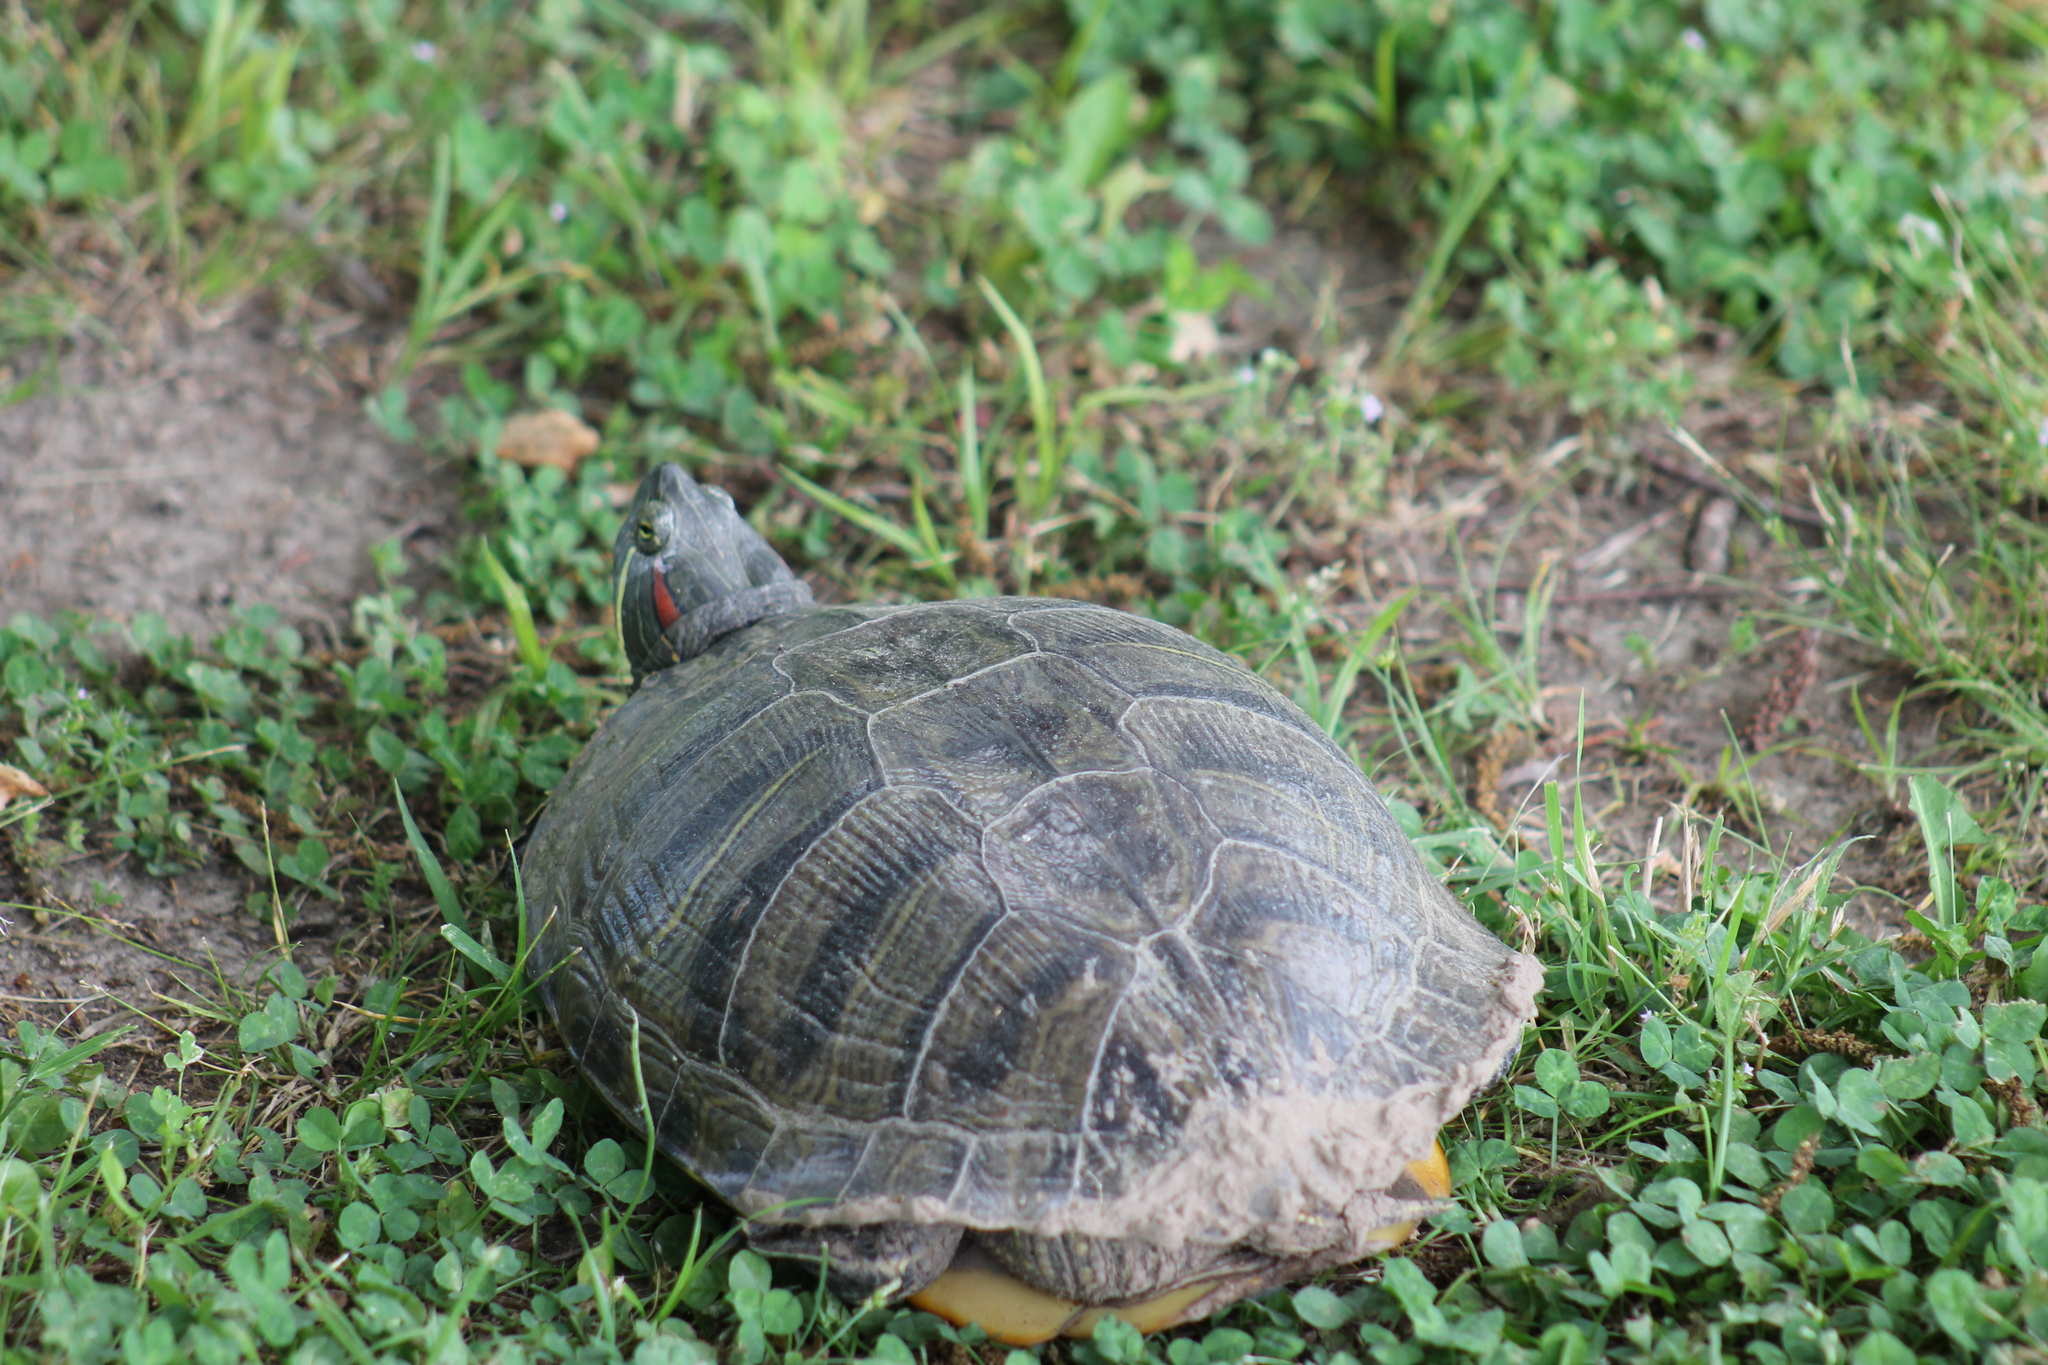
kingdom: Animalia
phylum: Chordata
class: Testudines
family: Emydidae
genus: Trachemys
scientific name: Trachemys scripta
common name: Slider
